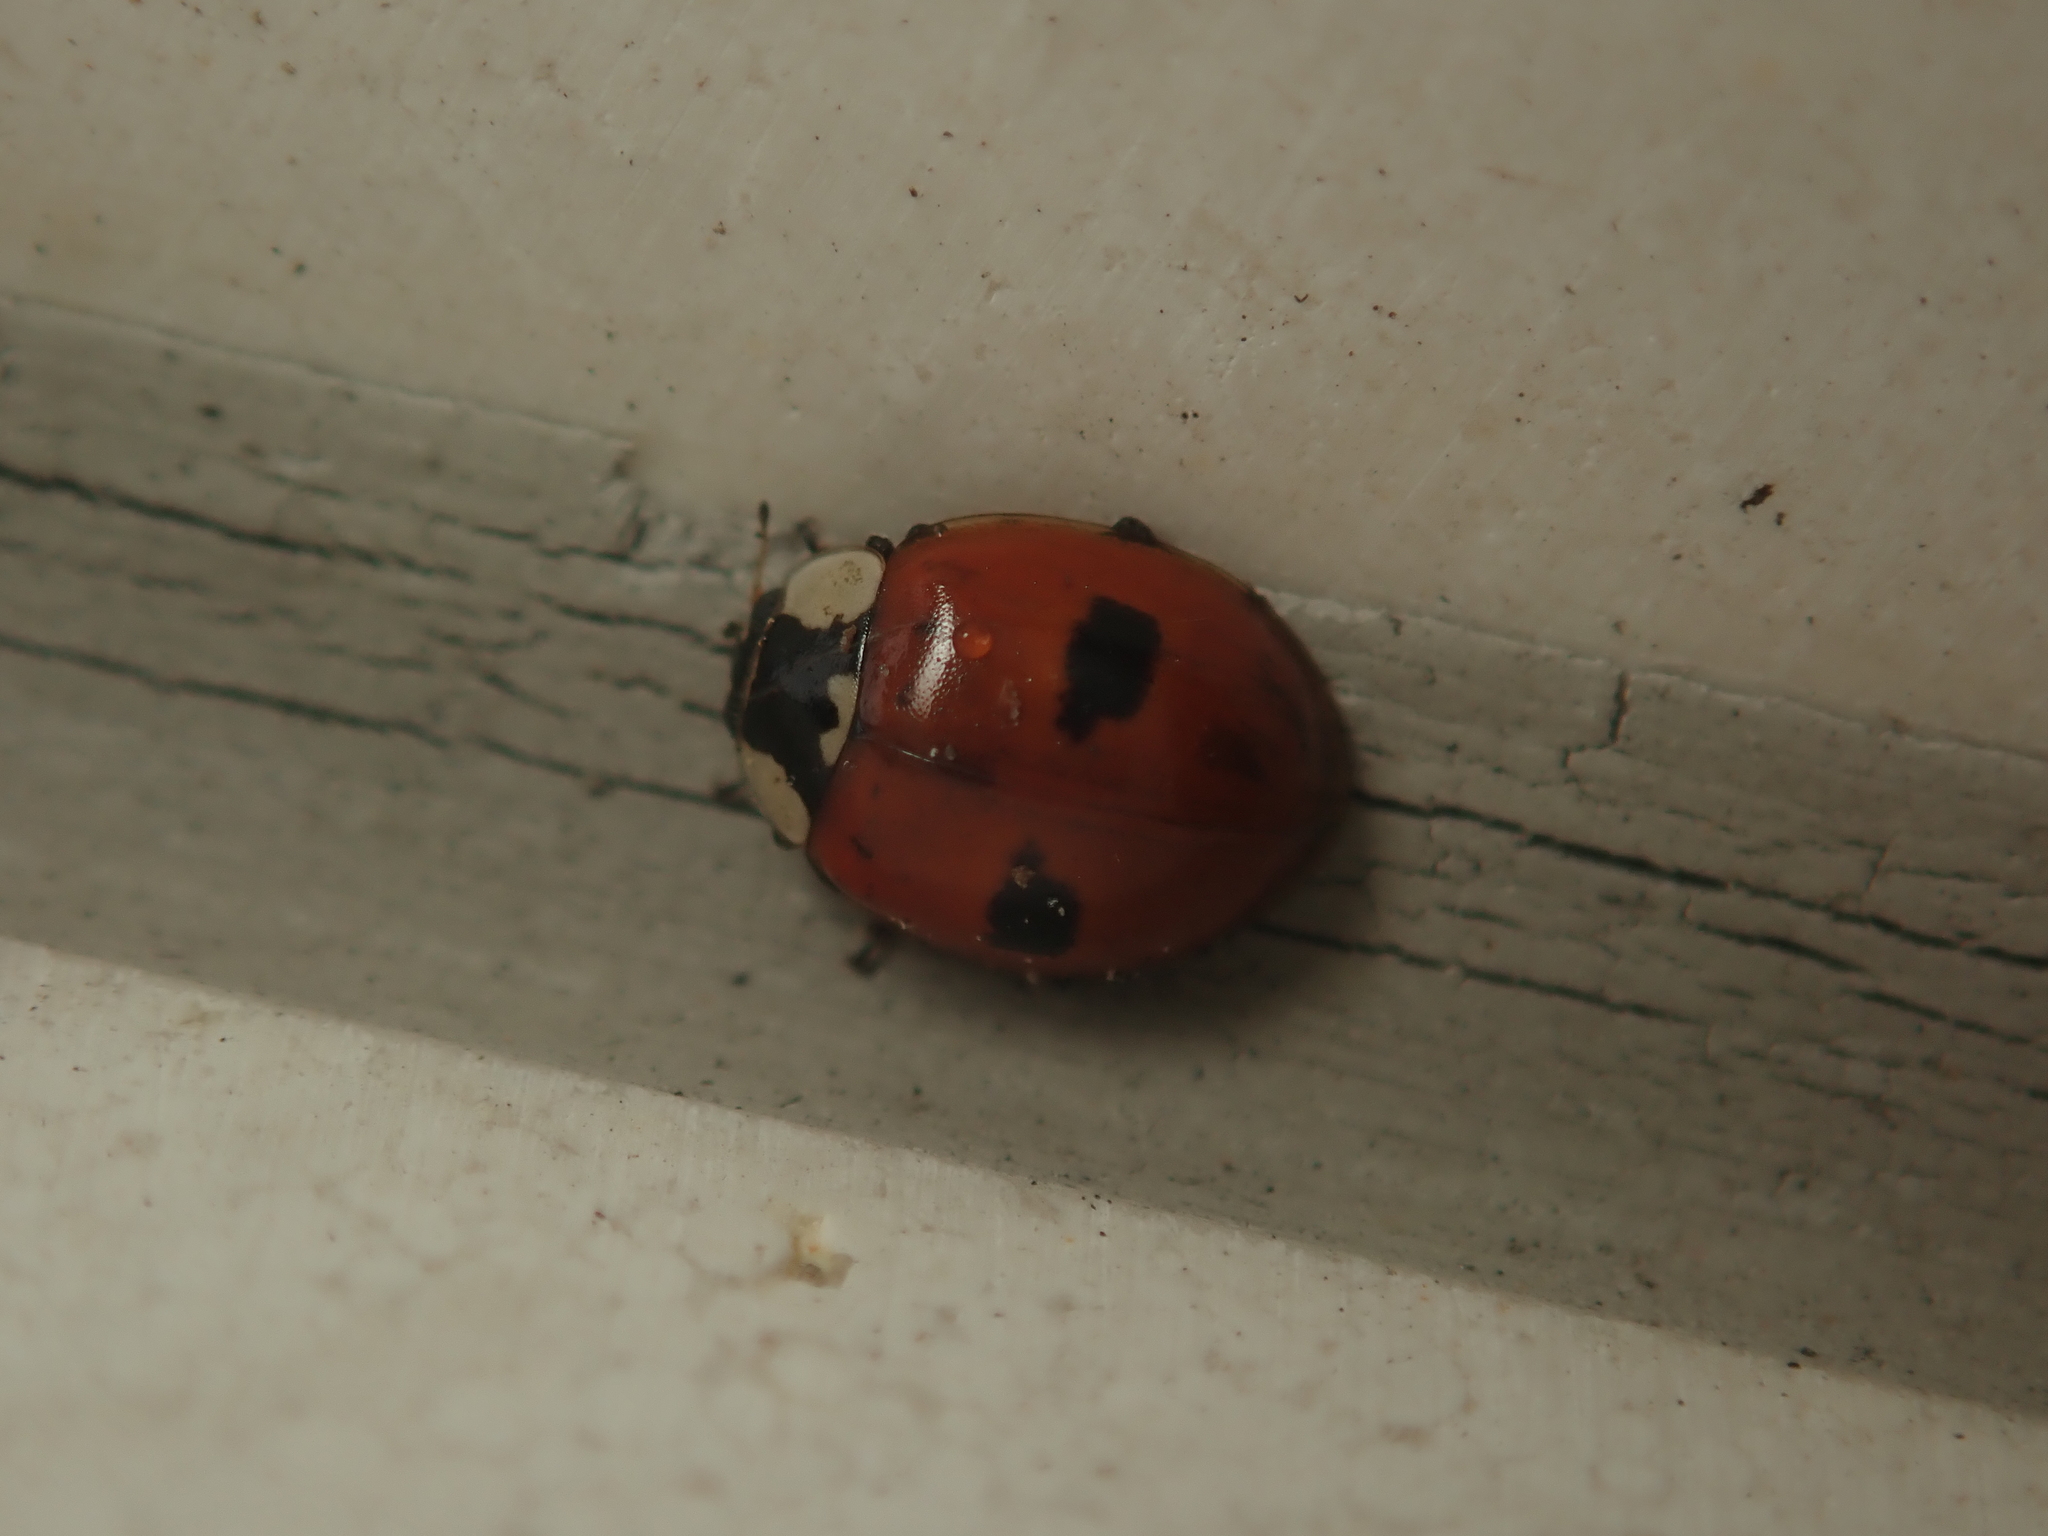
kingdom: Animalia
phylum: Arthropoda
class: Insecta
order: Coleoptera
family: Coccinellidae
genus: Adalia
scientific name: Adalia bipunctata
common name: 2-spot ladybird
